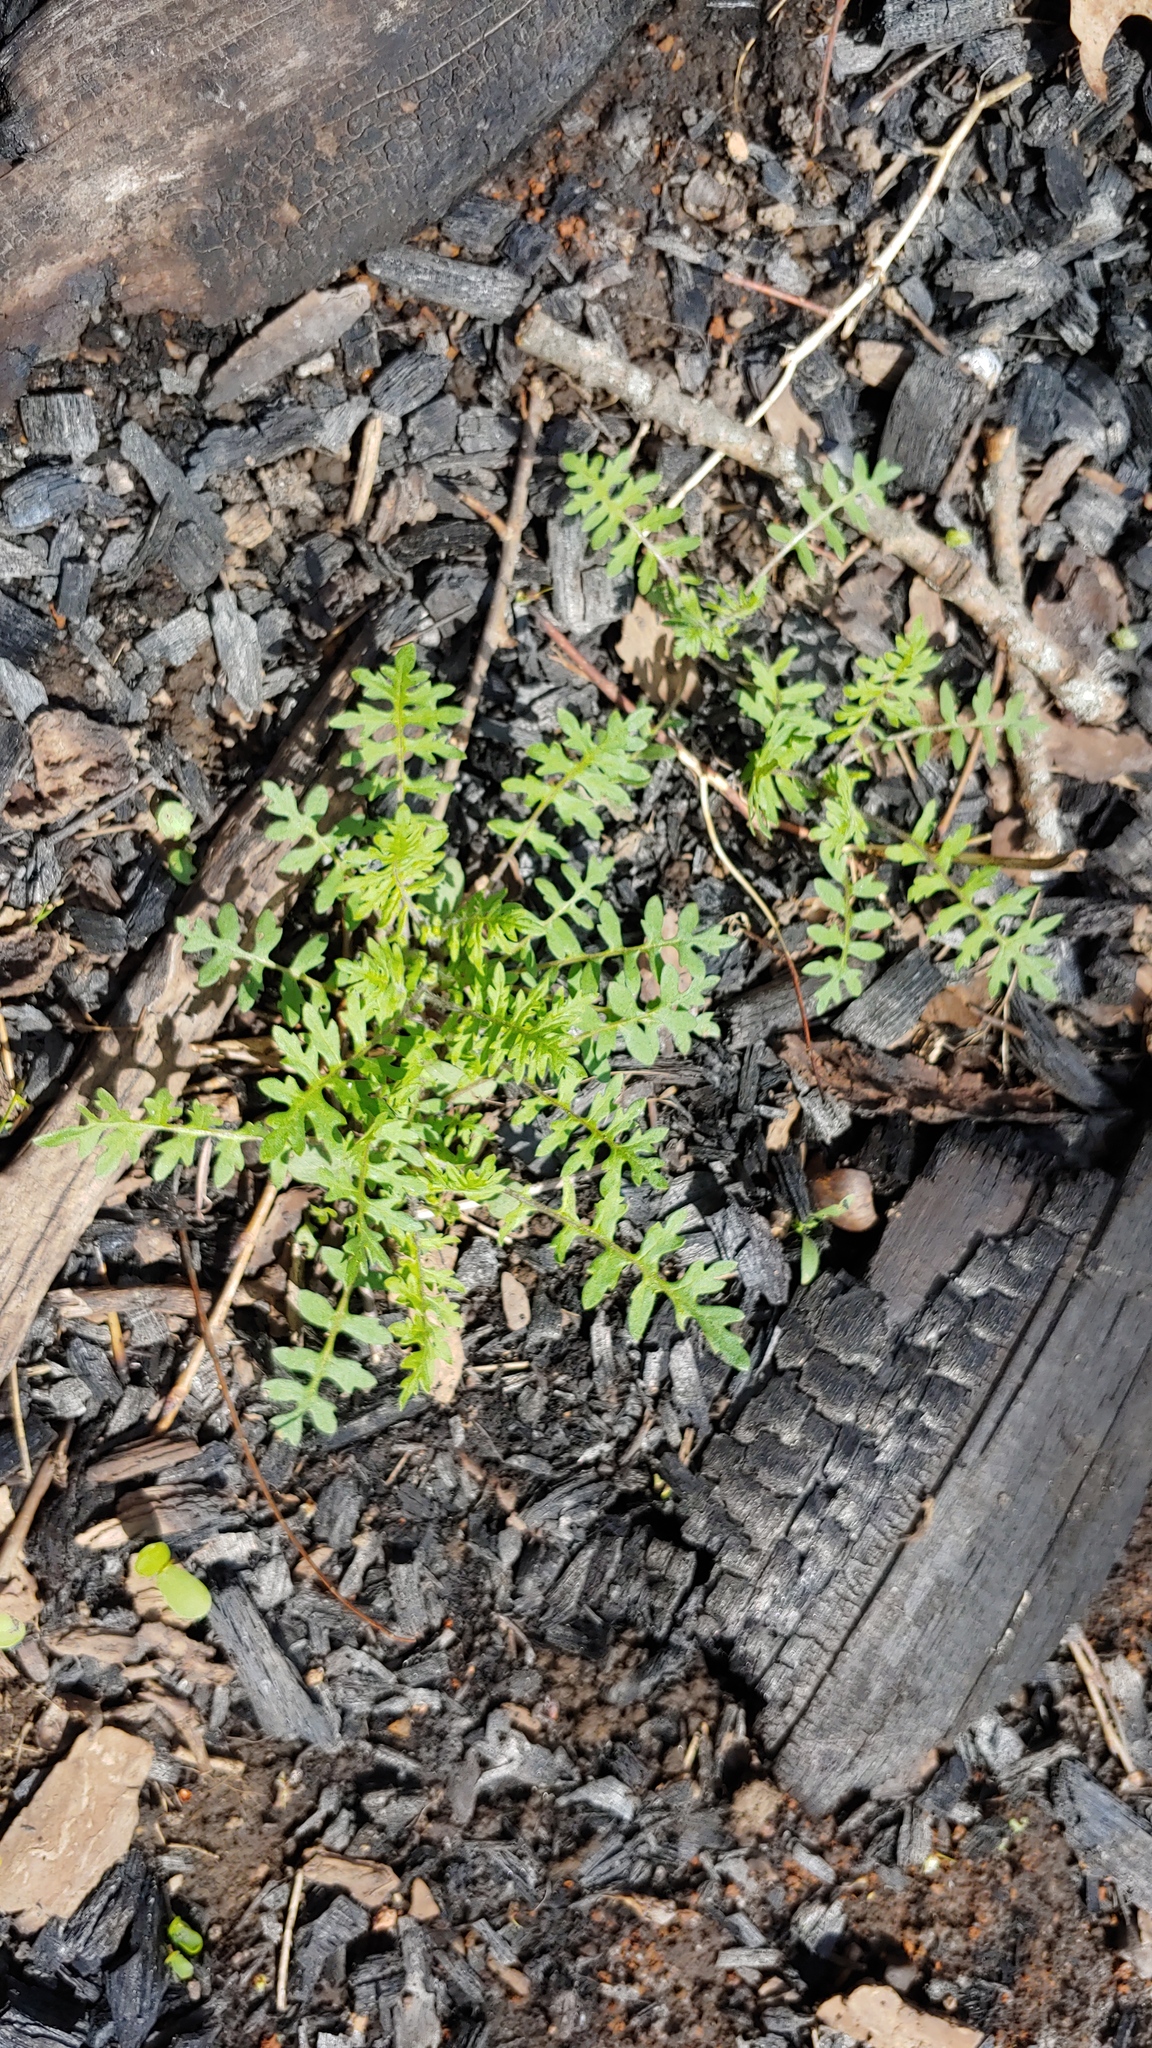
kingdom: Plantae
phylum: Tracheophyta
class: Magnoliopsida
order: Boraginales
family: Hydrophyllaceae
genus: Ellisia
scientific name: Ellisia nyctelea
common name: Aunt lucy
